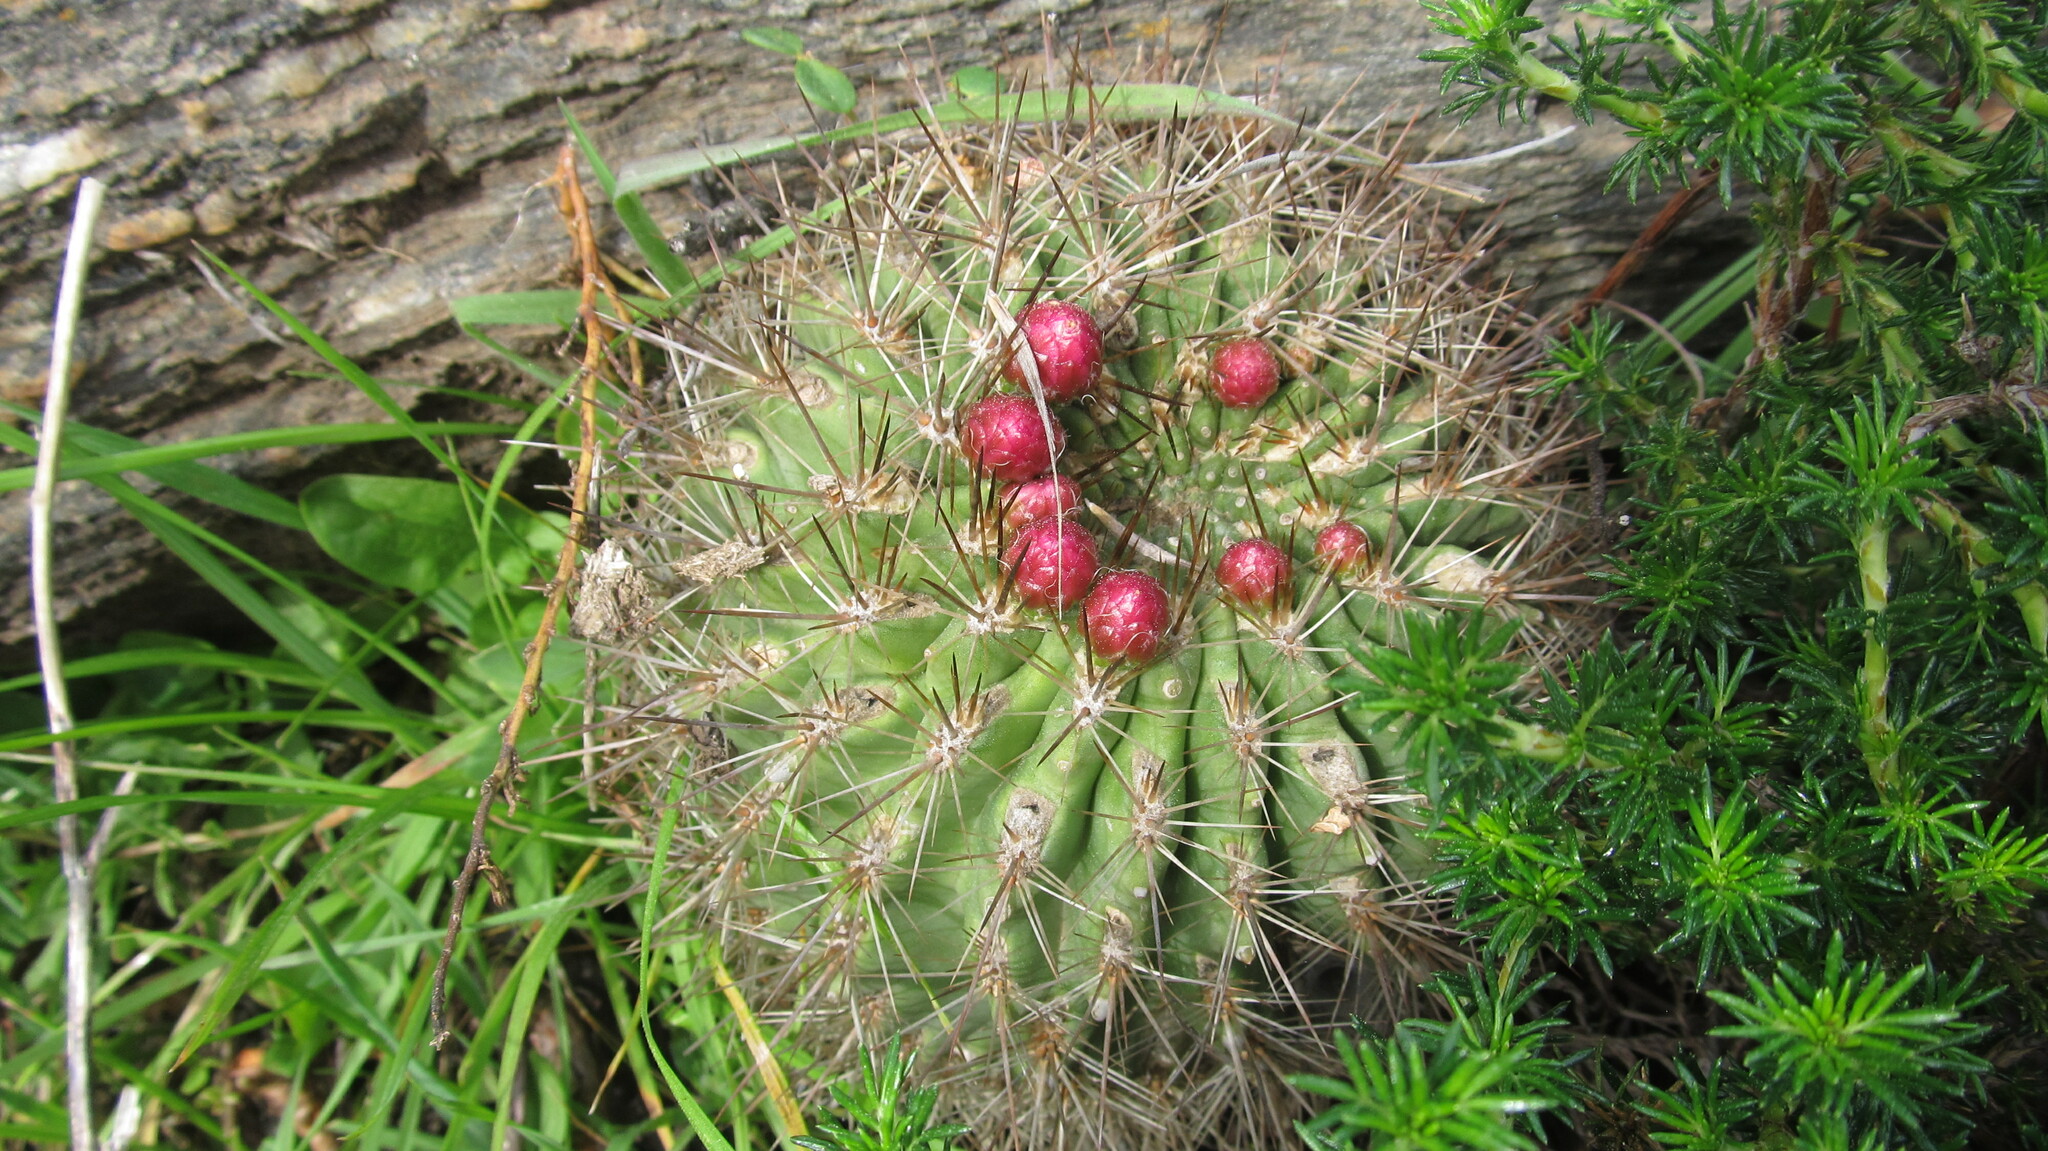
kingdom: Plantae
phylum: Tracheophyta
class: Magnoliopsida
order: Caryophyllales
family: Cactaceae
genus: Eriosyce
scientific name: Eriosyce subgibbosa
